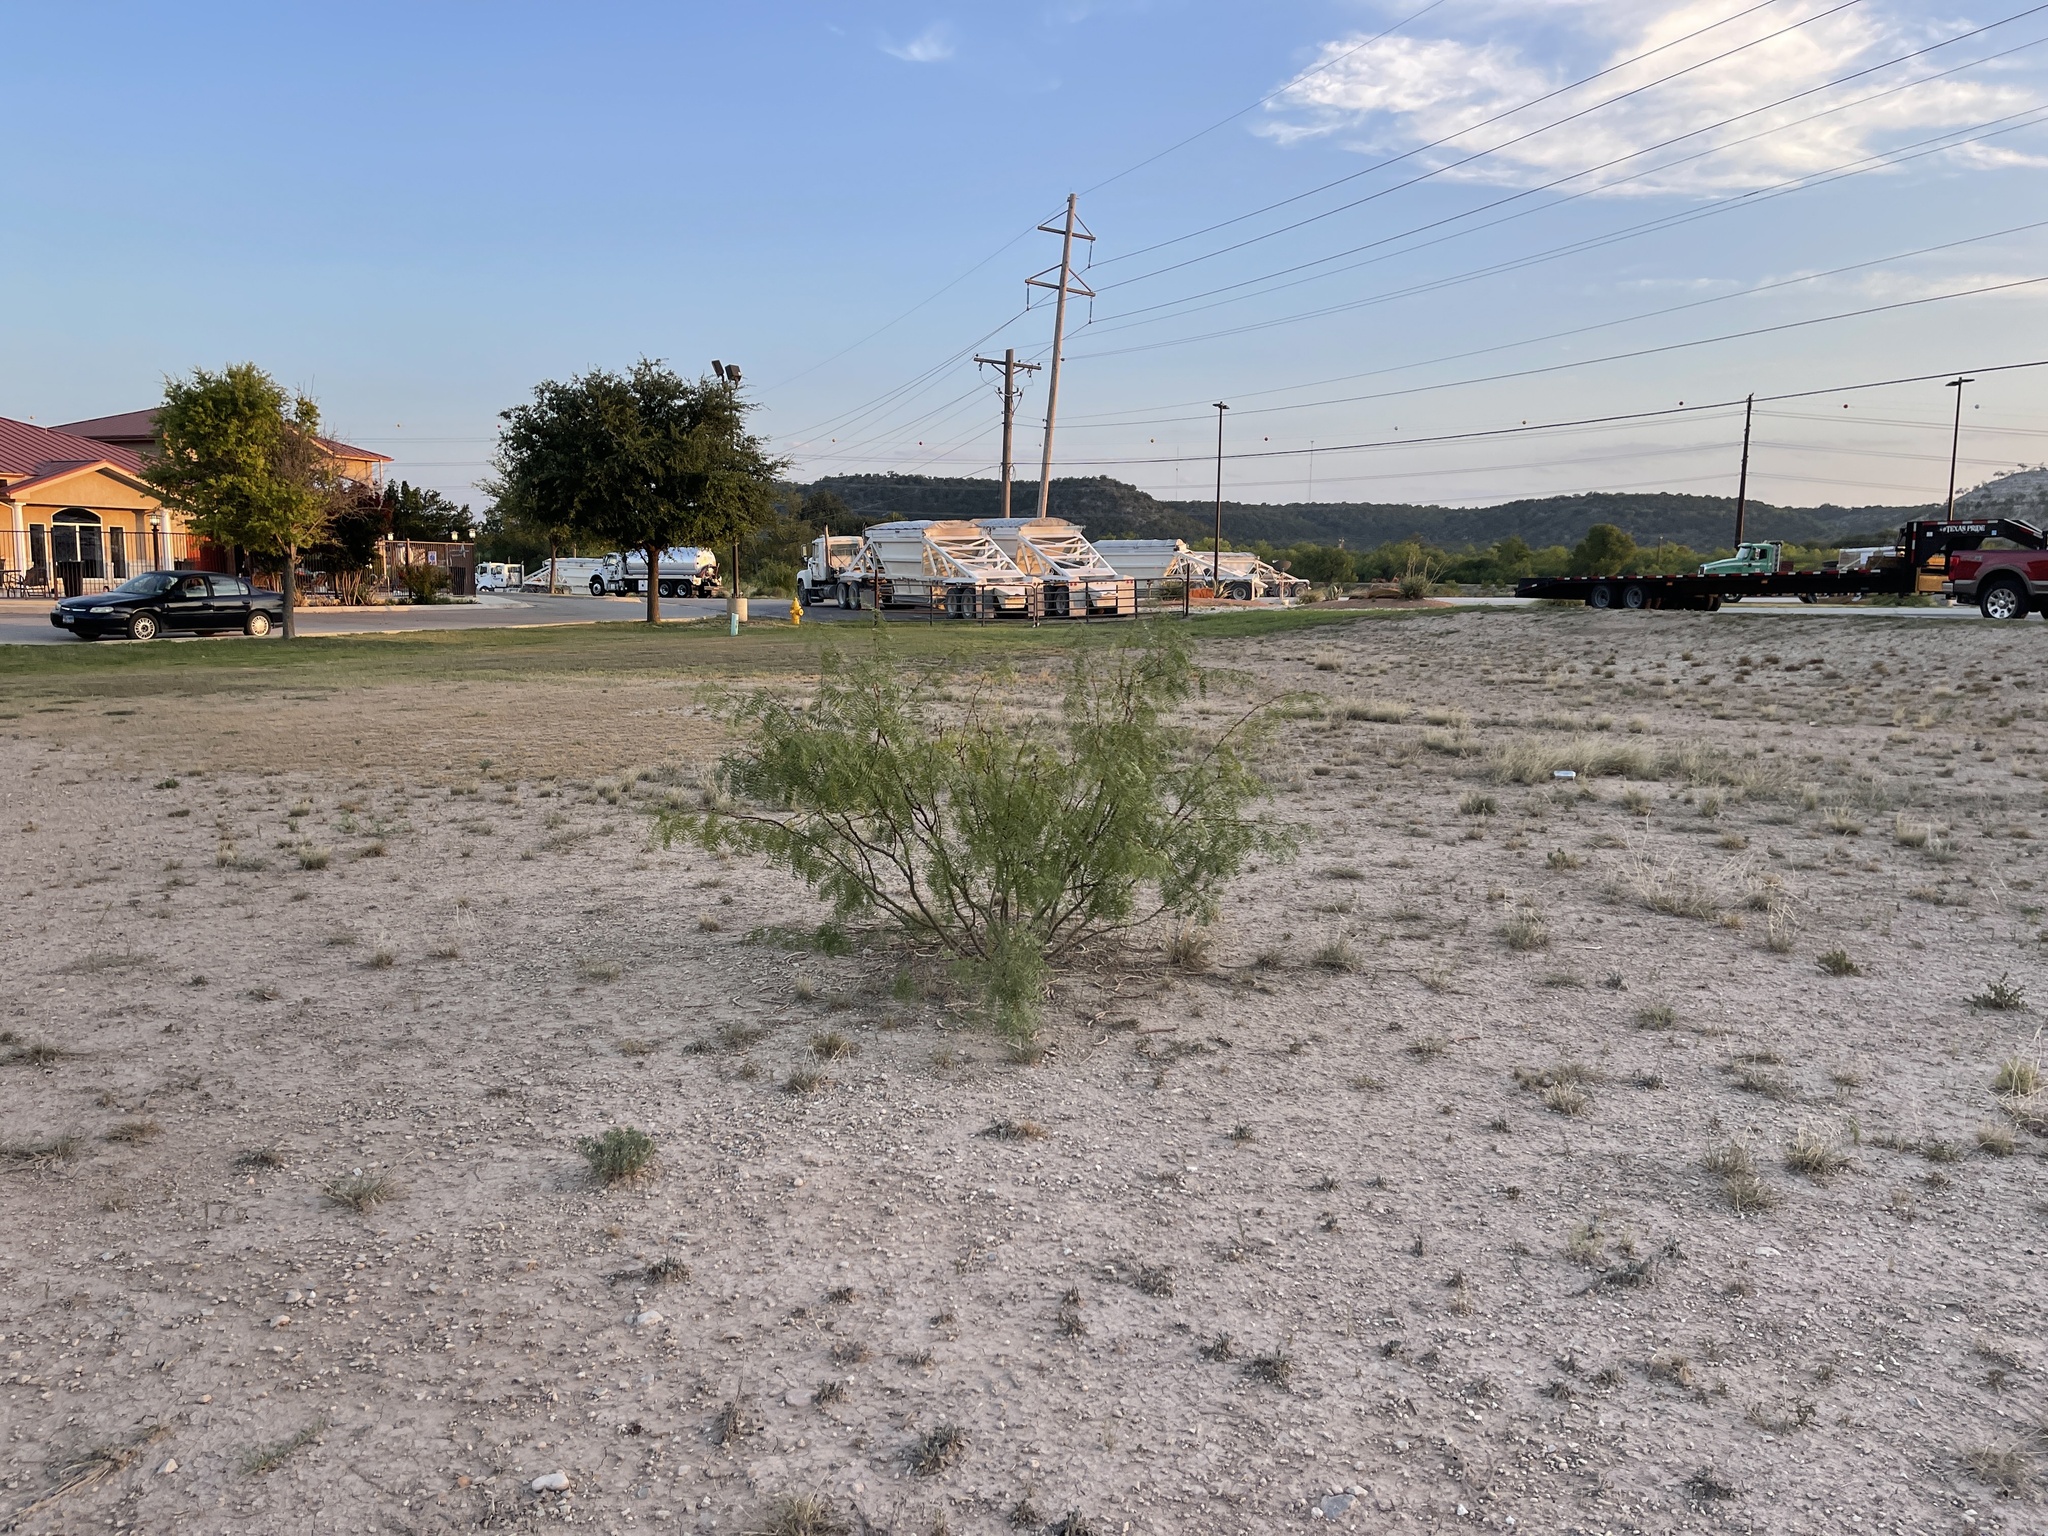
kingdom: Plantae
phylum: Tracheophyta
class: Magnoliopsida
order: Fabales
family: Fabaceae
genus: Prosopis
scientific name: Prosopis glandulosa
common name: Honey mesquite
